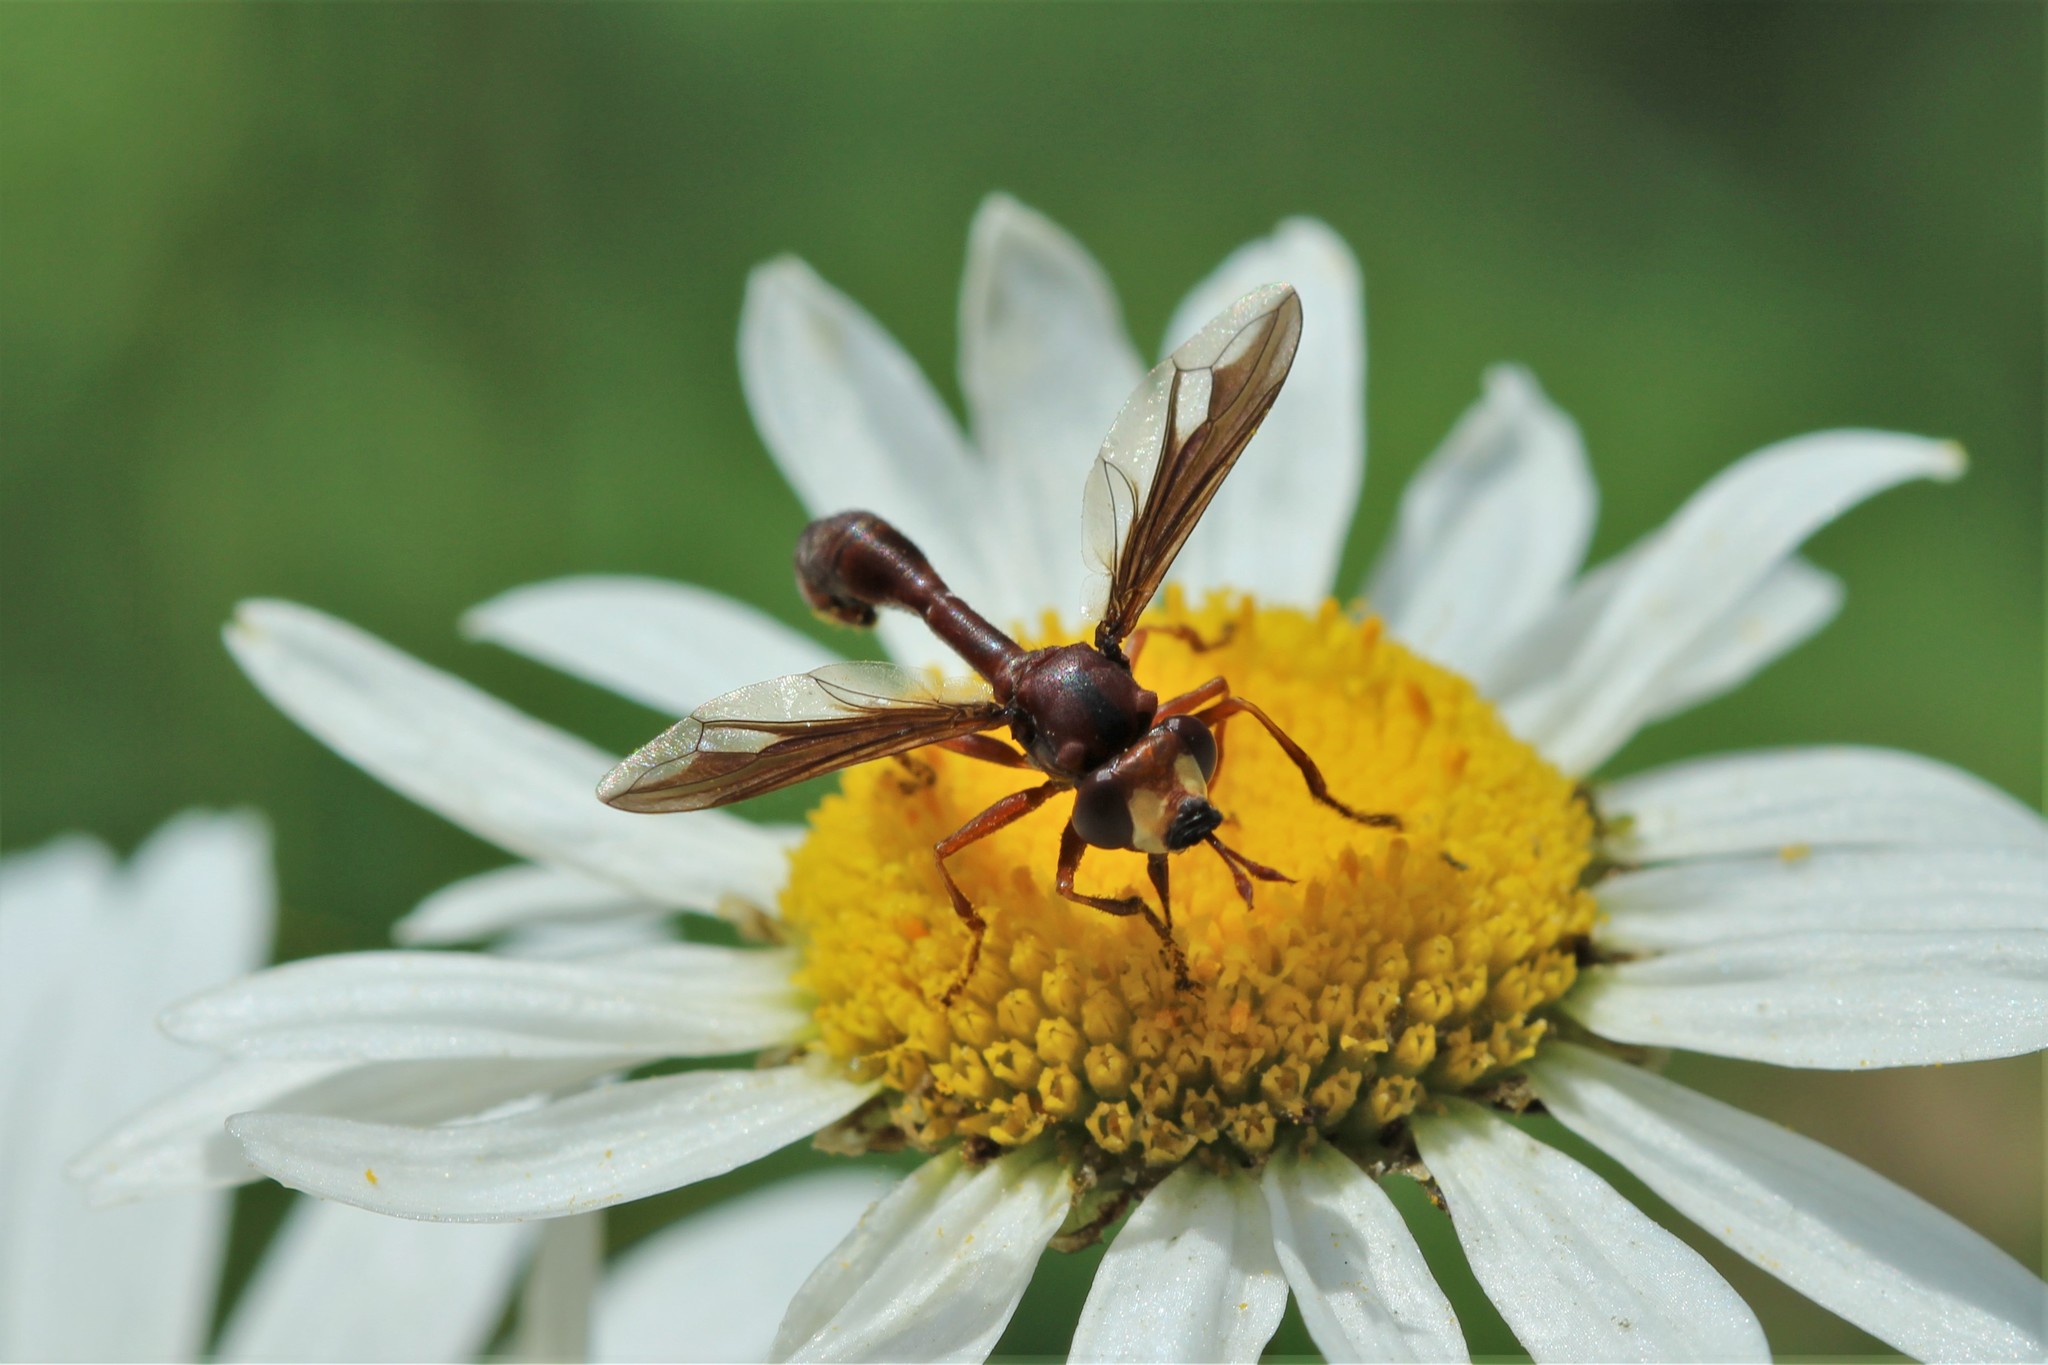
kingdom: Animalia
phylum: Arthropoda
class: Insecta
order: Diptera
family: Conopidae
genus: Physocephala
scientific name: Physocephala burgessi
